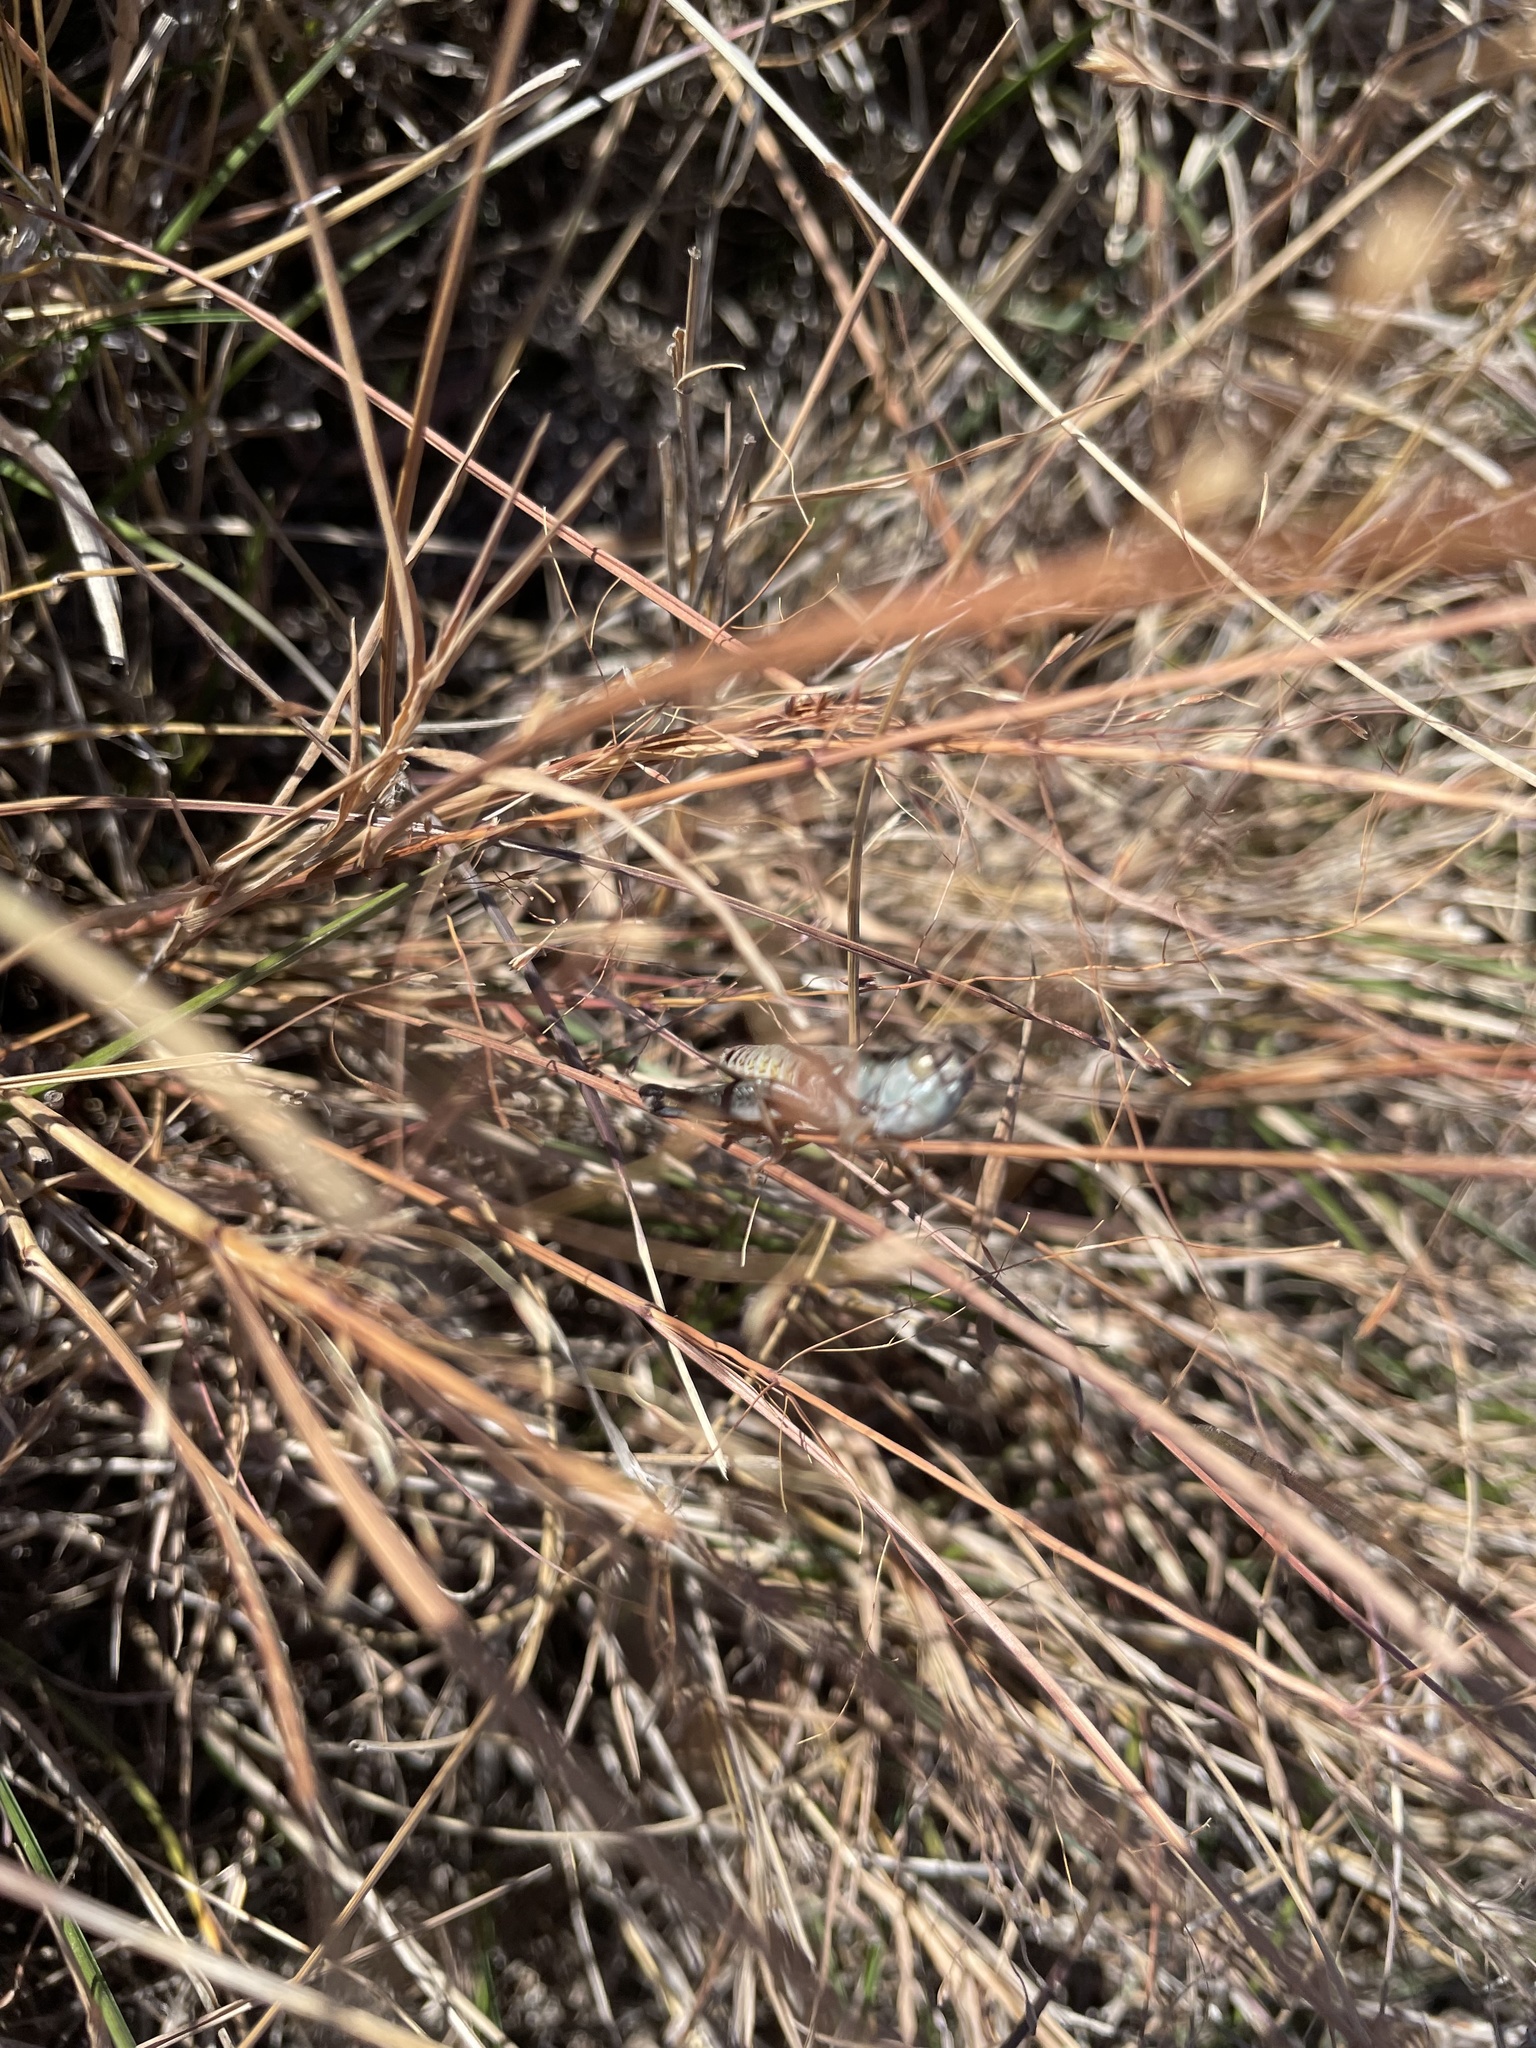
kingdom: Animalia
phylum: Arthropoda
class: Insecta
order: Orthoptera
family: Acrididae
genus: Phoetaliotes
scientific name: Phoetaliotes nebrascensis
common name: Large-headed grasshopper
